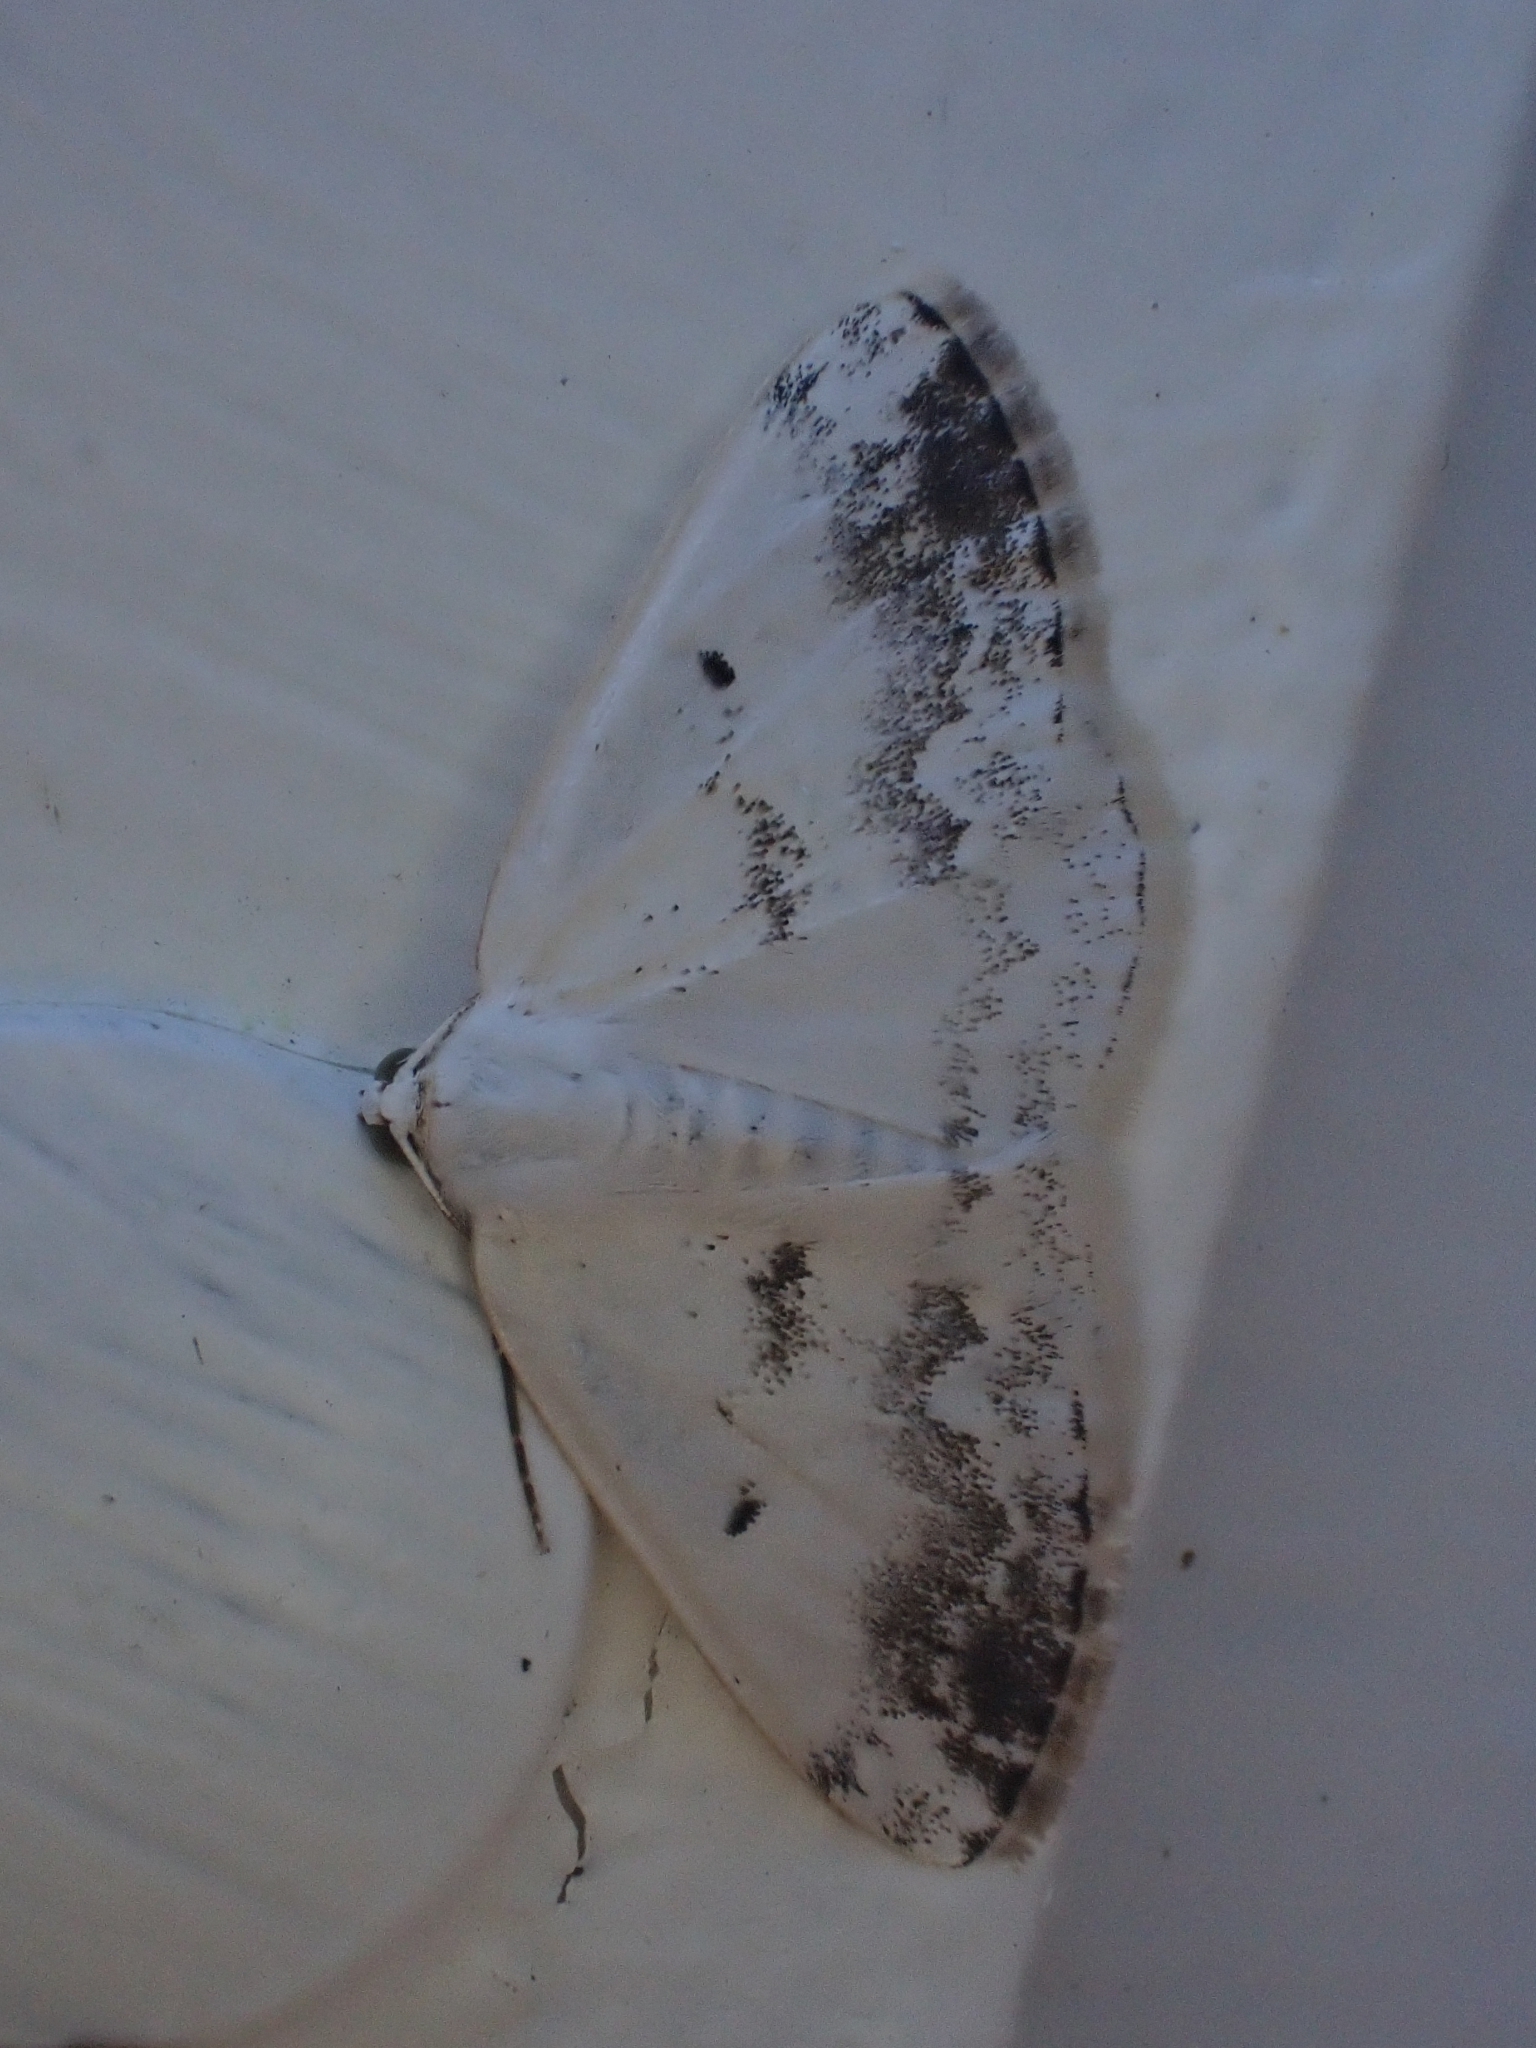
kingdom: Animalia
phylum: Arthropoda
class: Insecta
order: Lepidoptera
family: Geometridae
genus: Lomographa
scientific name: Lomographa temerata
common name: Clouded silver
